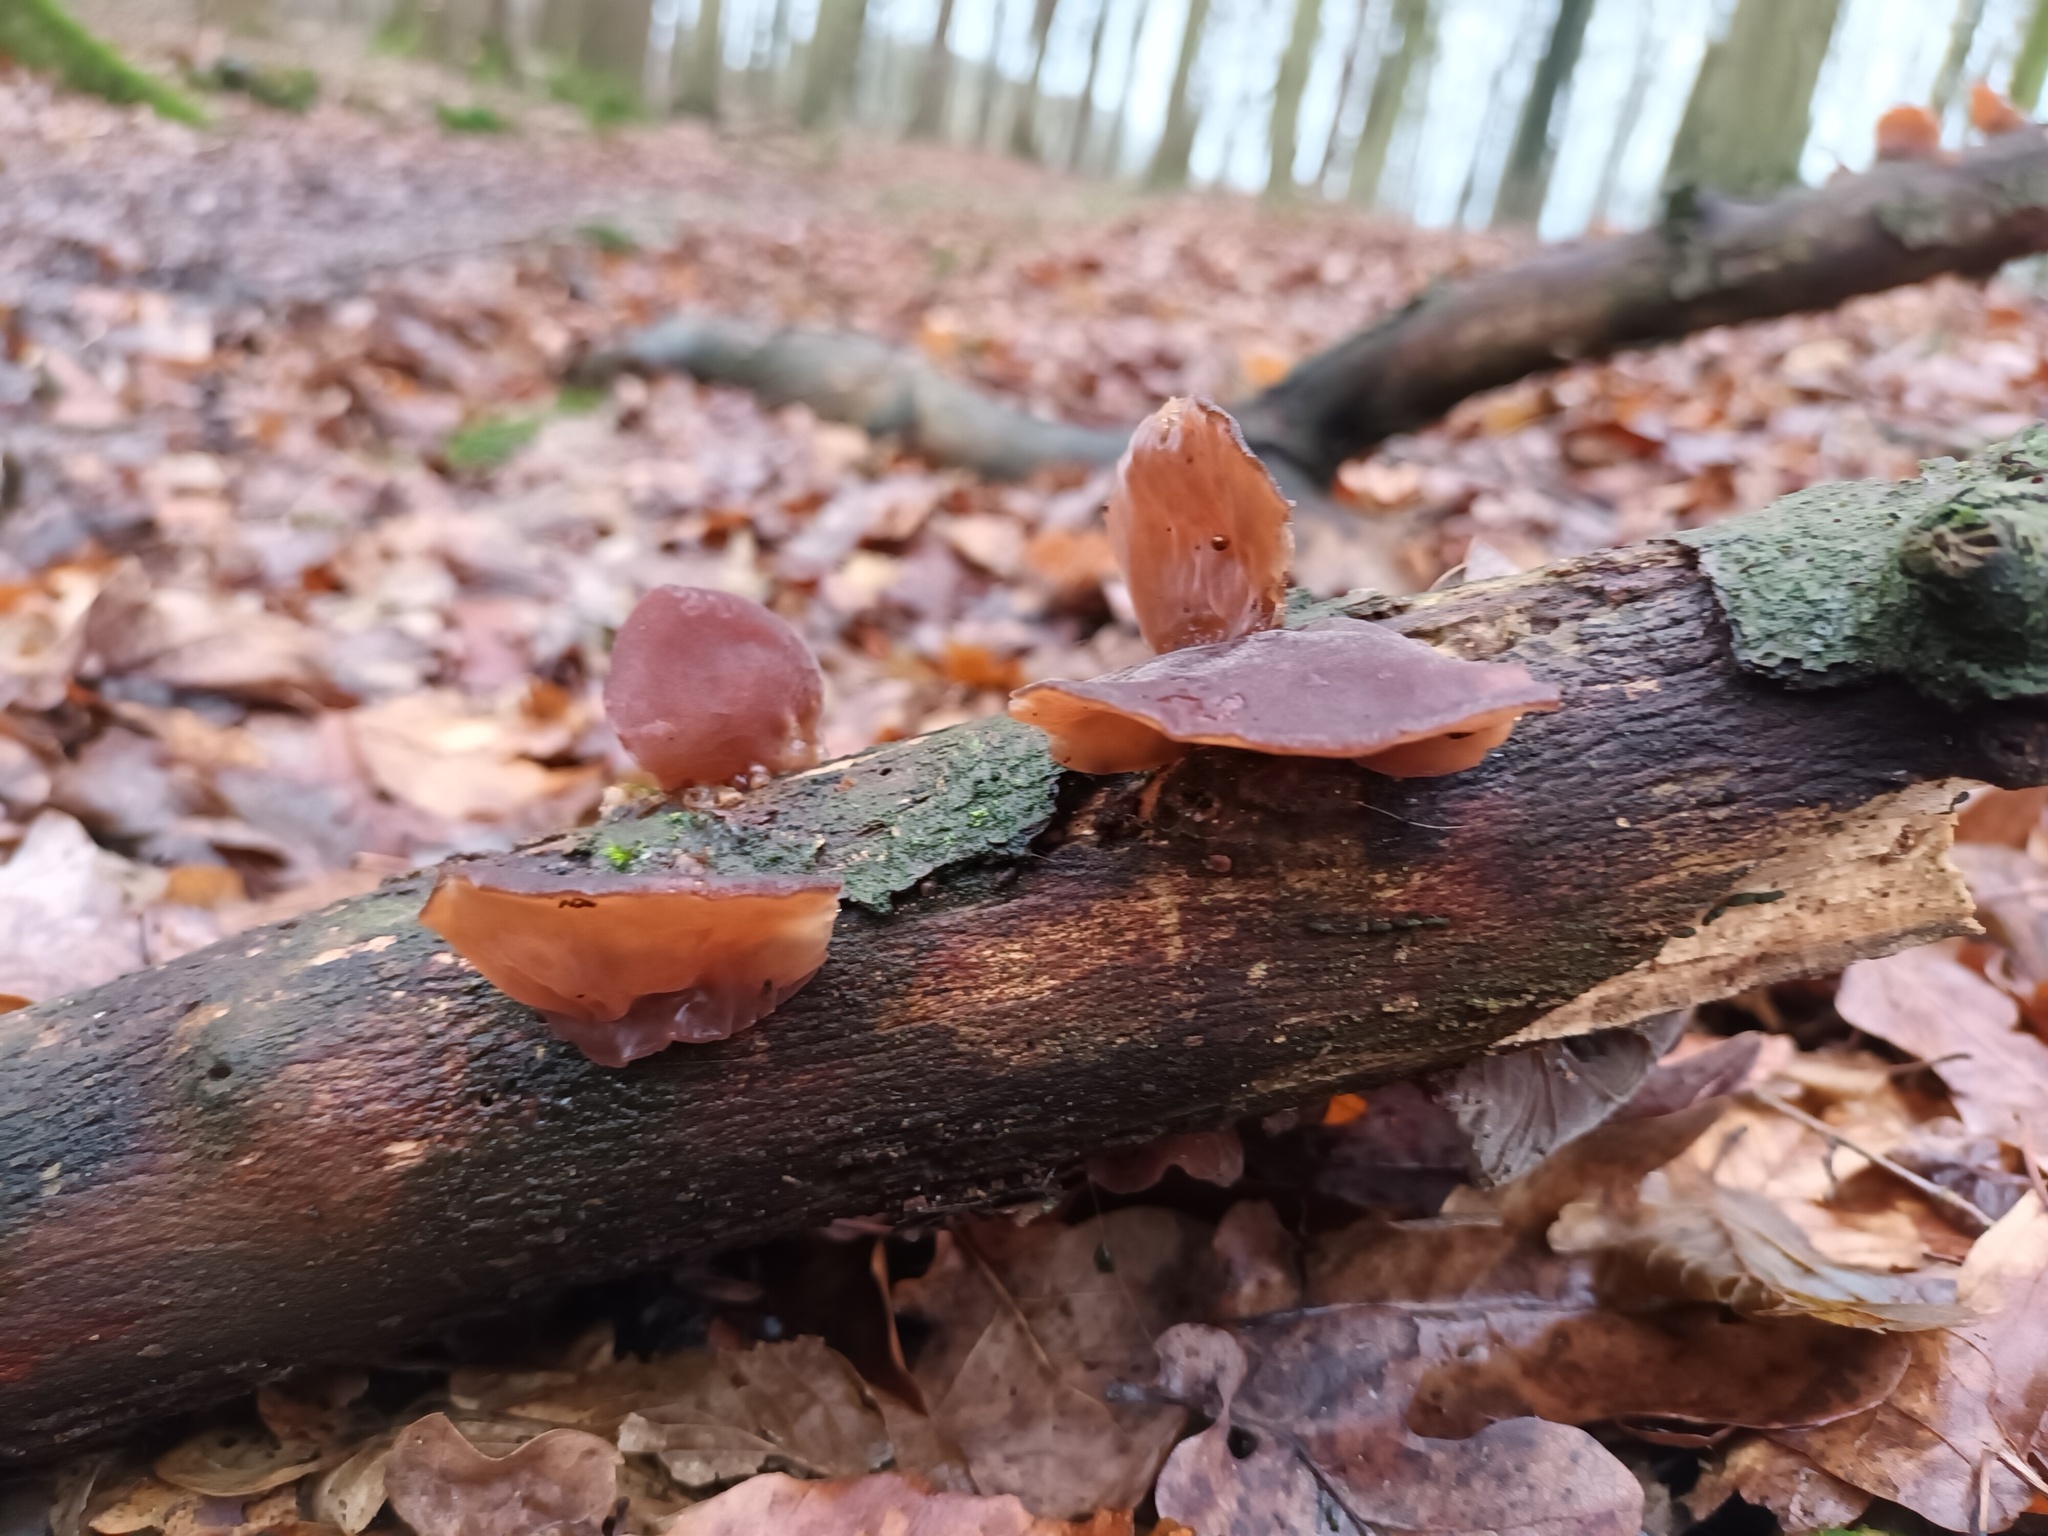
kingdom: Fungi
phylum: Basidiomycota
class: Agaricomycetes
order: Auriculariales
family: Auriculariaceae
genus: Auricularia
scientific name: Auricularia auricula-judae
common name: Jelly ear
